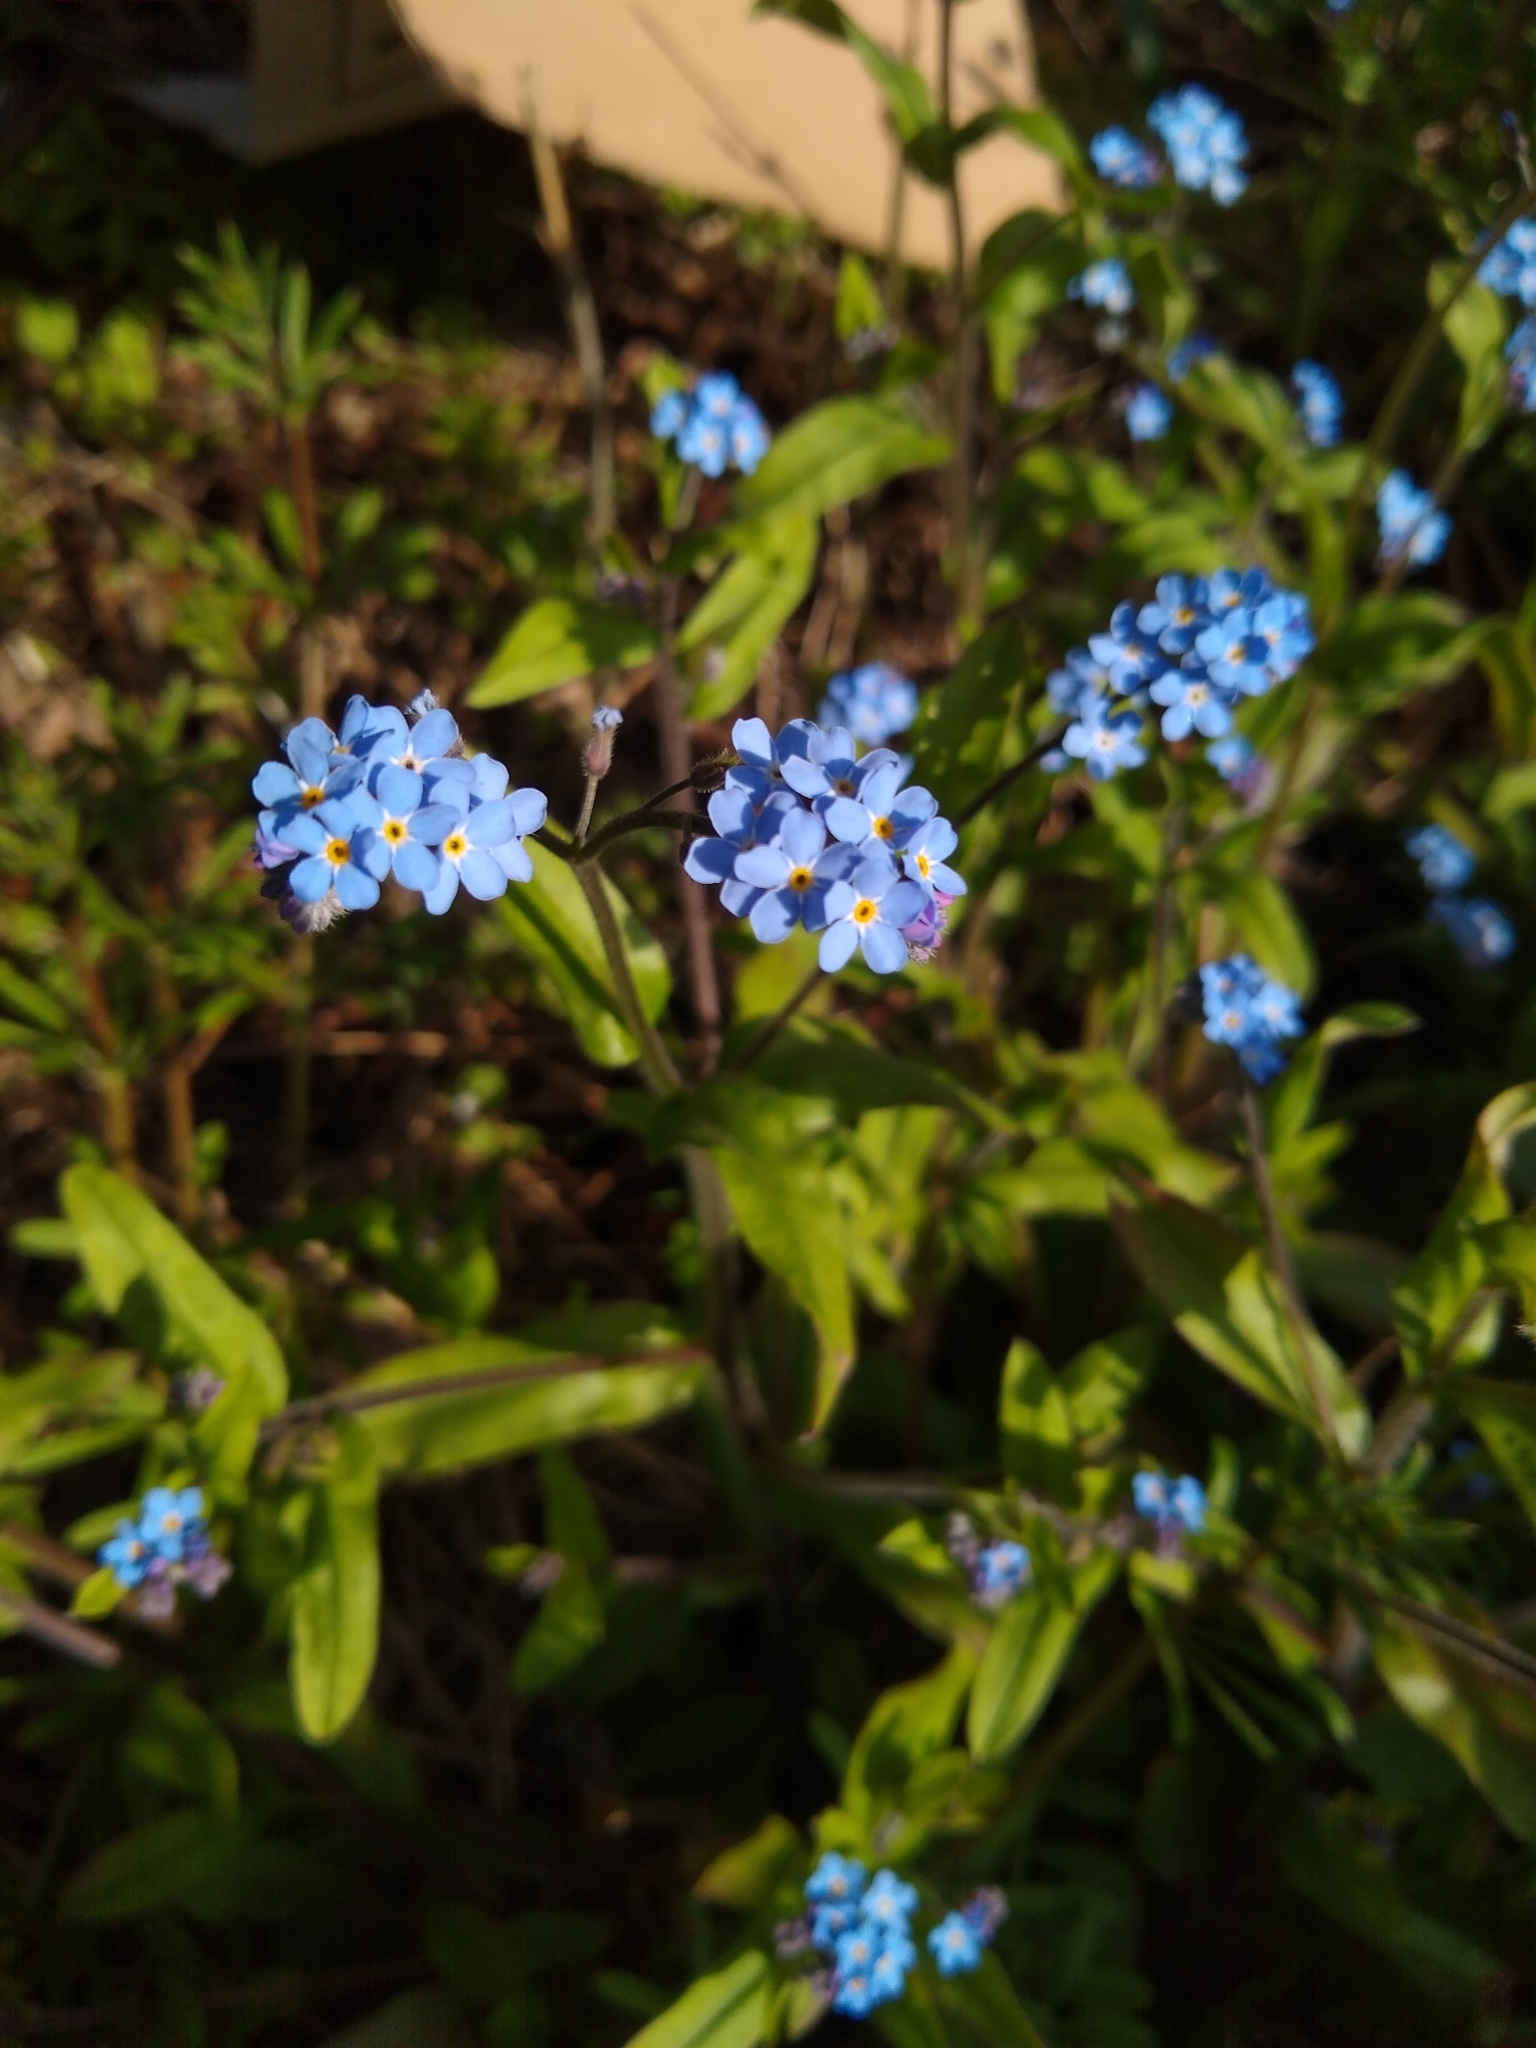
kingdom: Plantae
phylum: Tracheophyta
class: Magnoliopsida
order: Boraginales
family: Boraginaceae
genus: Myosotis
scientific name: Myosotis sylvatica
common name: Wood forget-me-not
